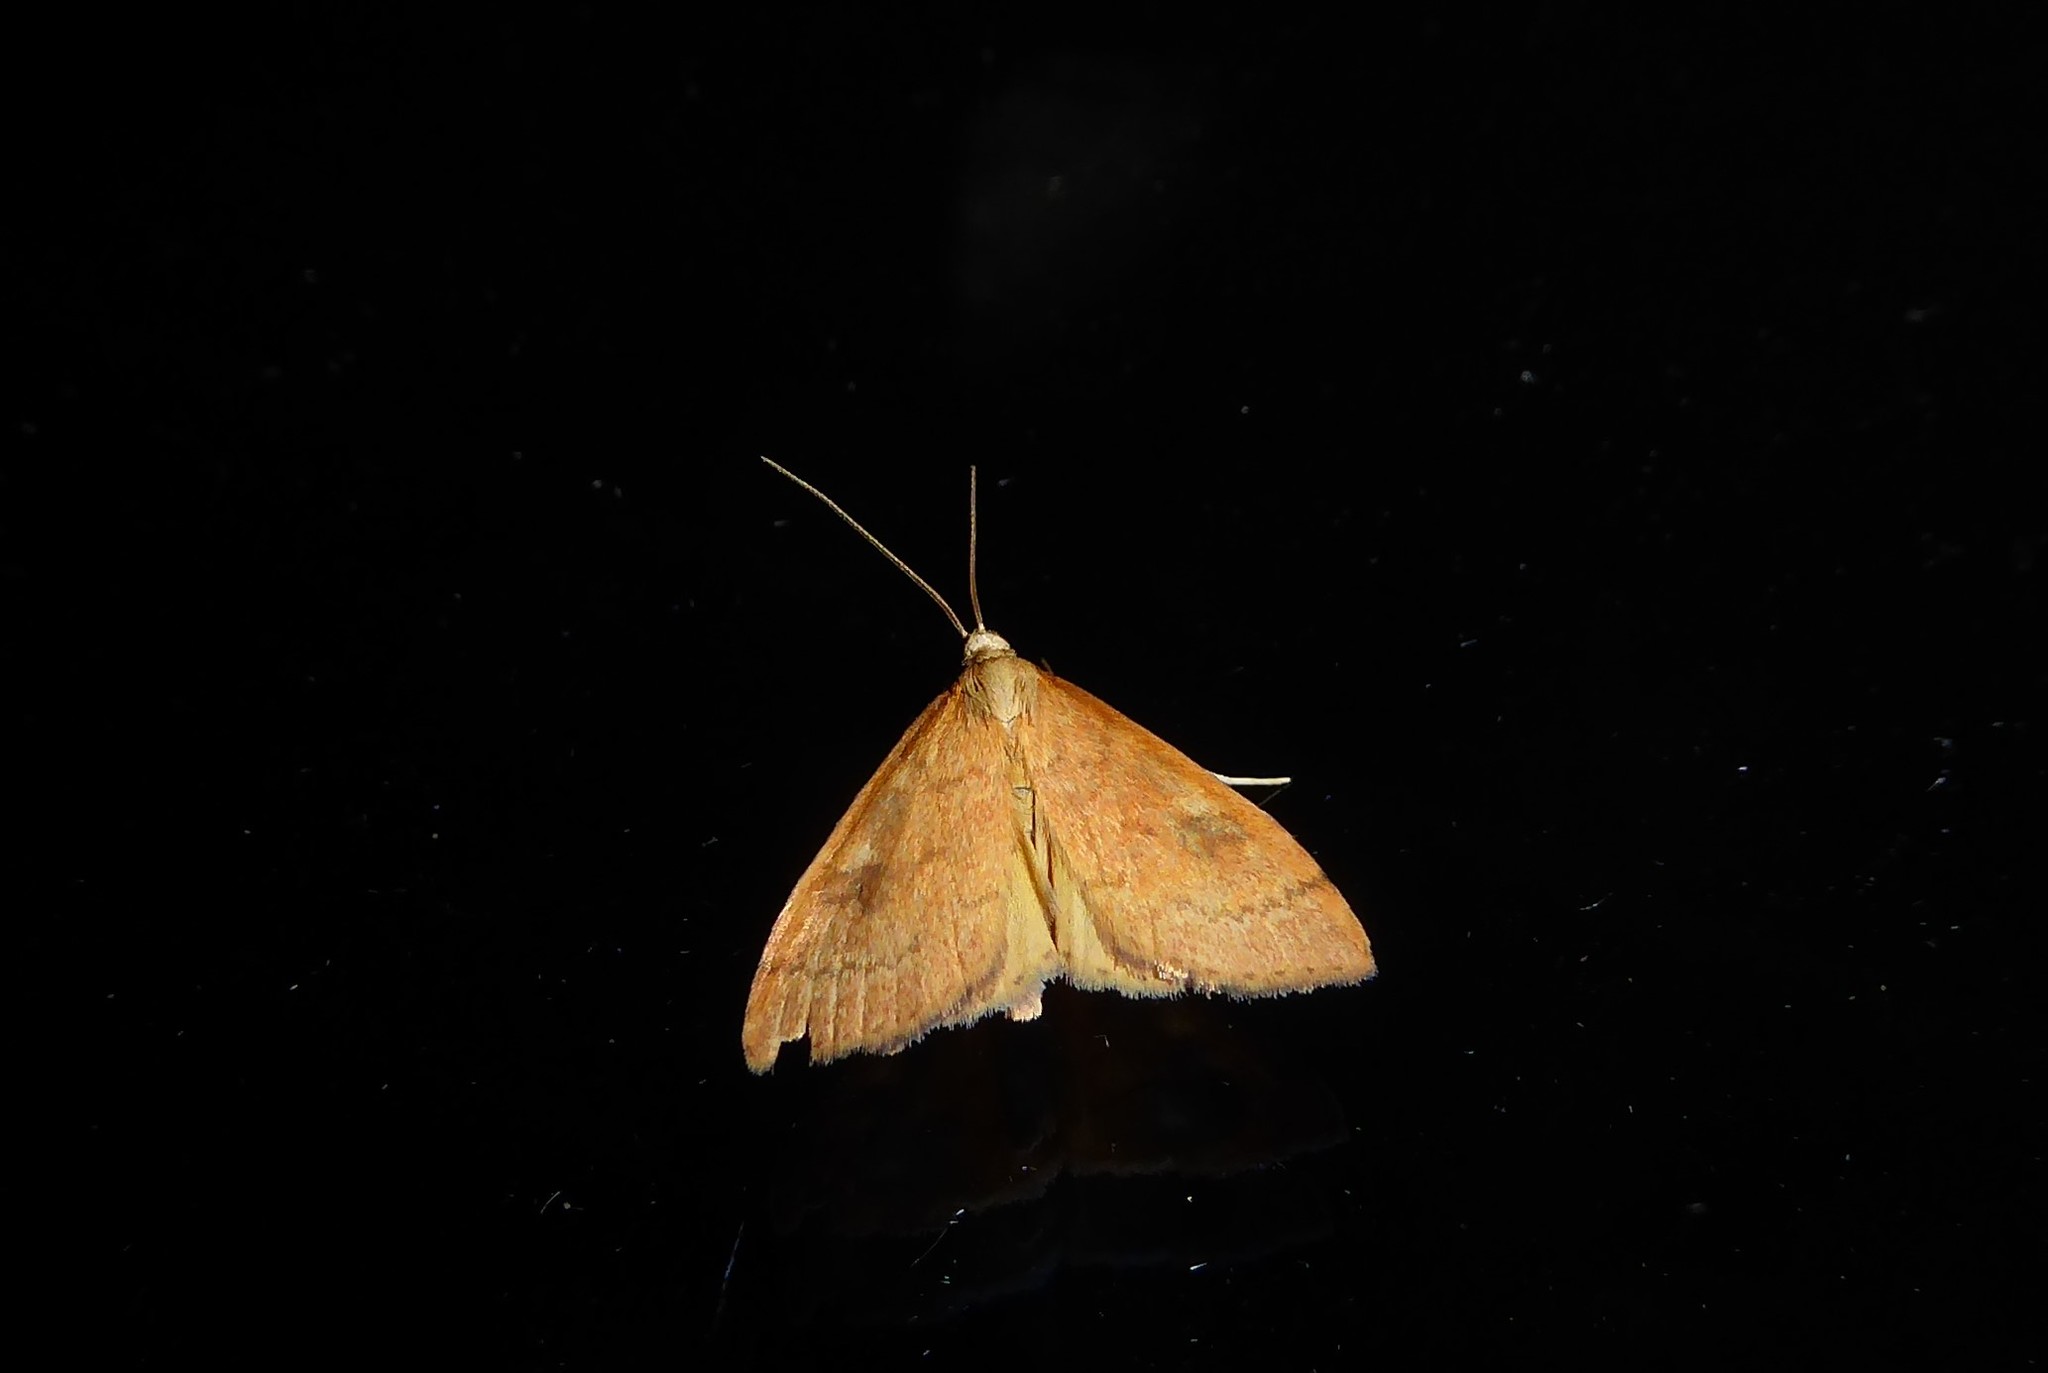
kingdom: Animalia
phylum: Arthropoda
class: Insecta
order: Lepidoptera
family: Crambidae
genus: Udea
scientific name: Udea Mnesictena flavidalis
